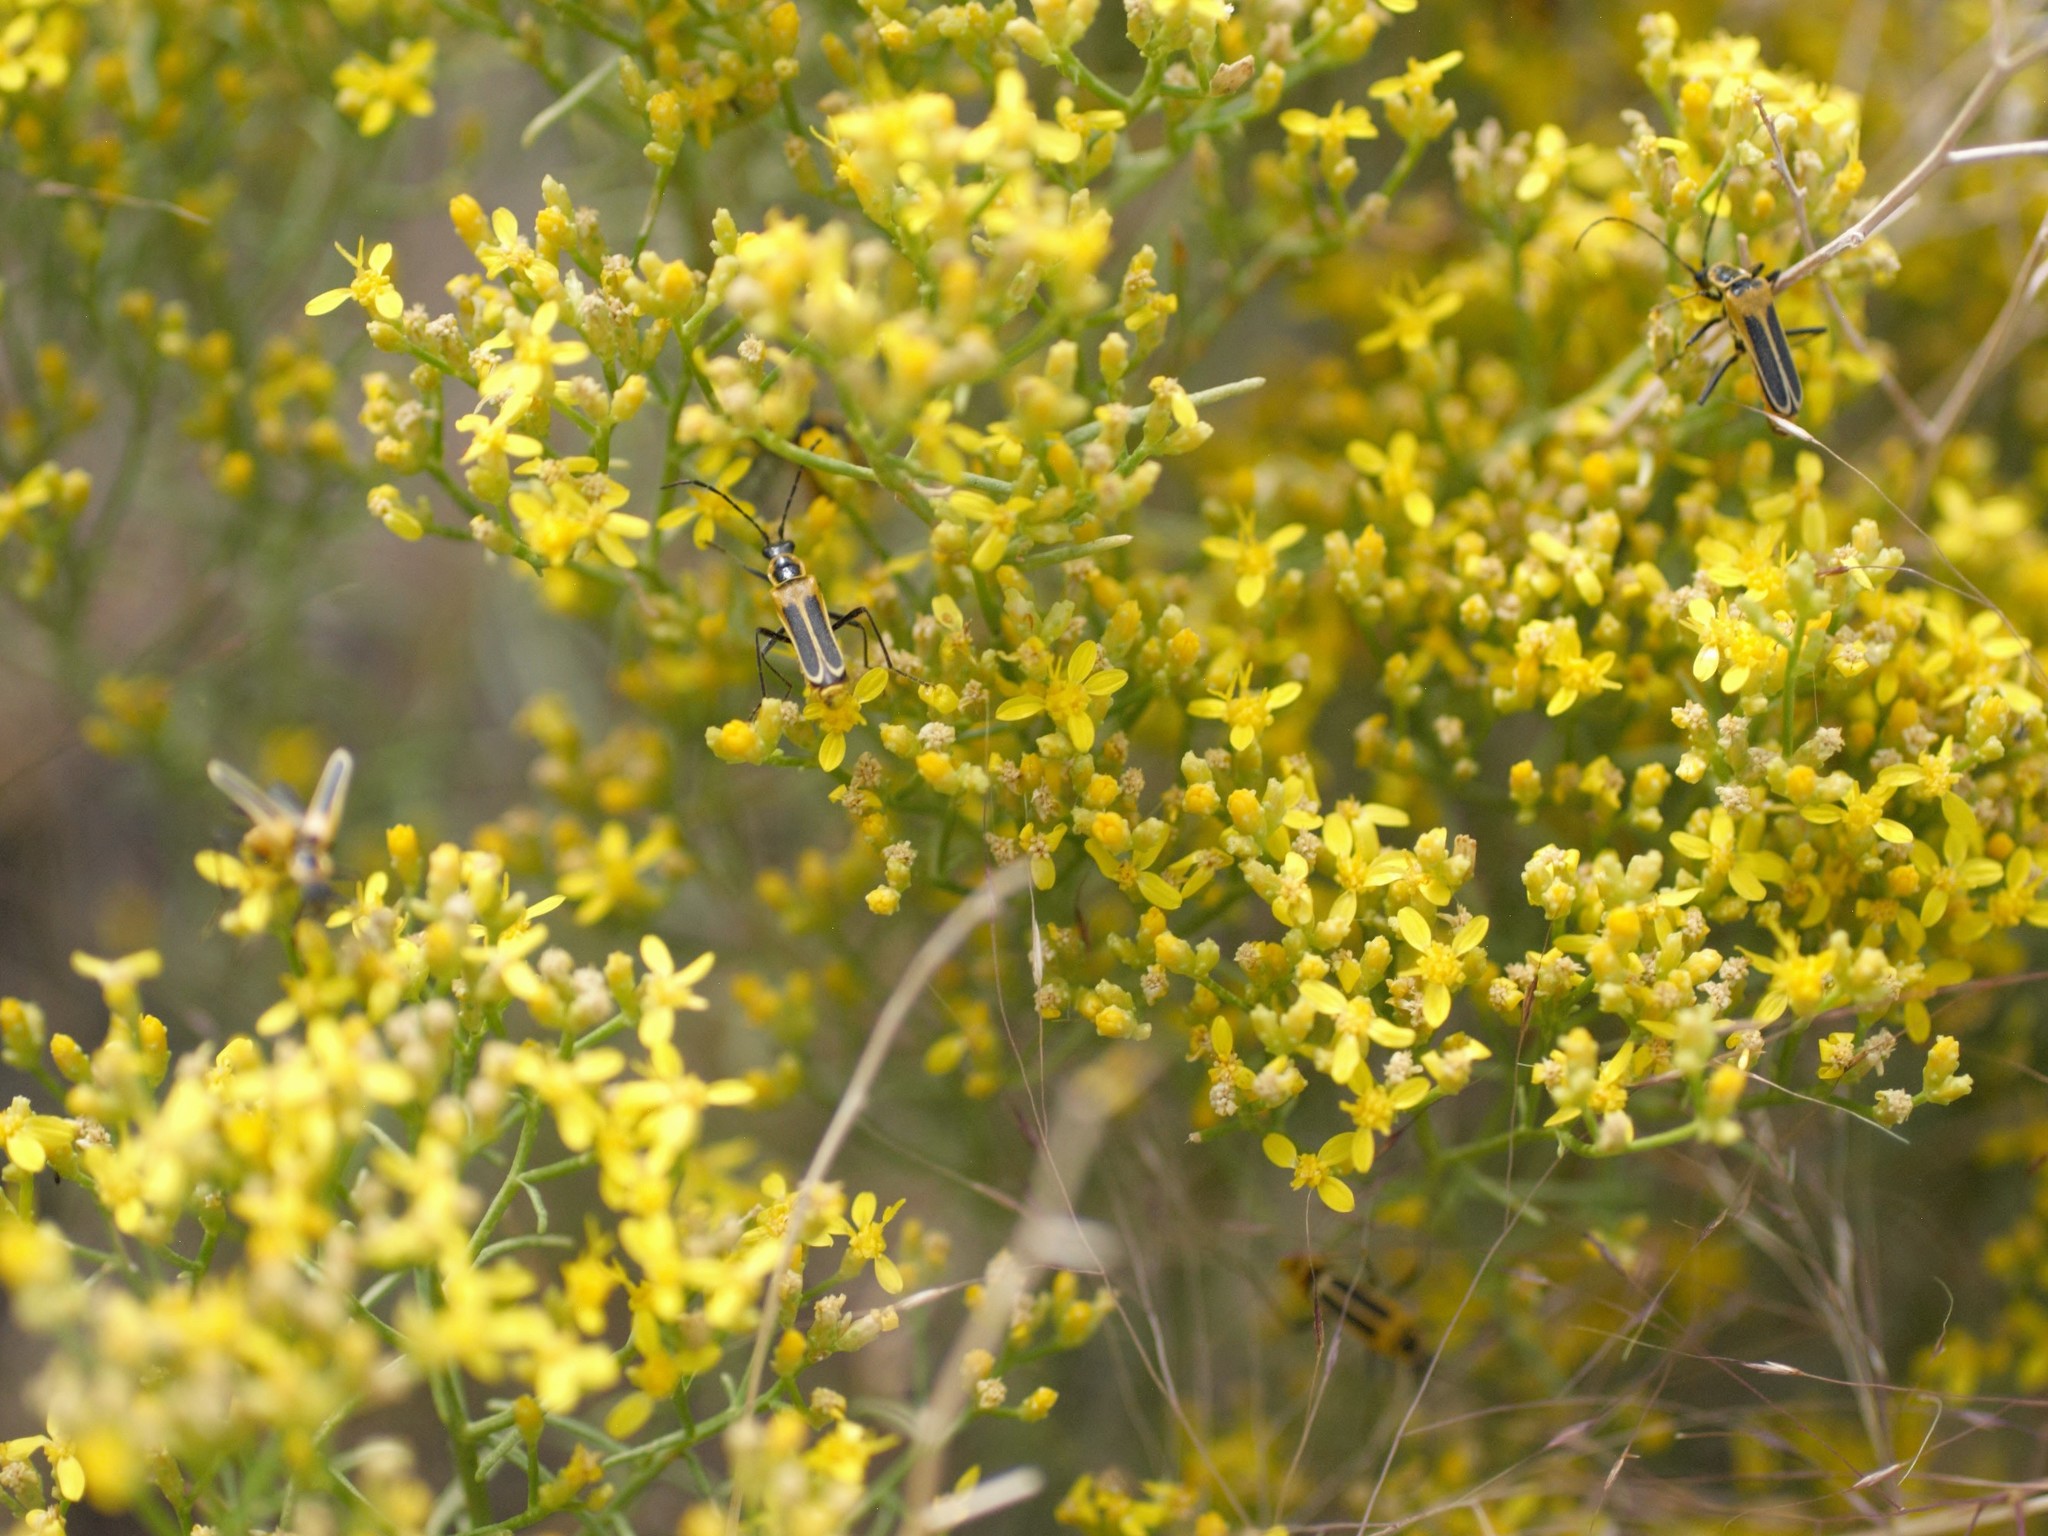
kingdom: Animalia
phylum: Arthropoda
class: Insecta
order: Coleoptera
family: Cantharidae
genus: Chauliognathus
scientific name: Chauliognathus lewisi
